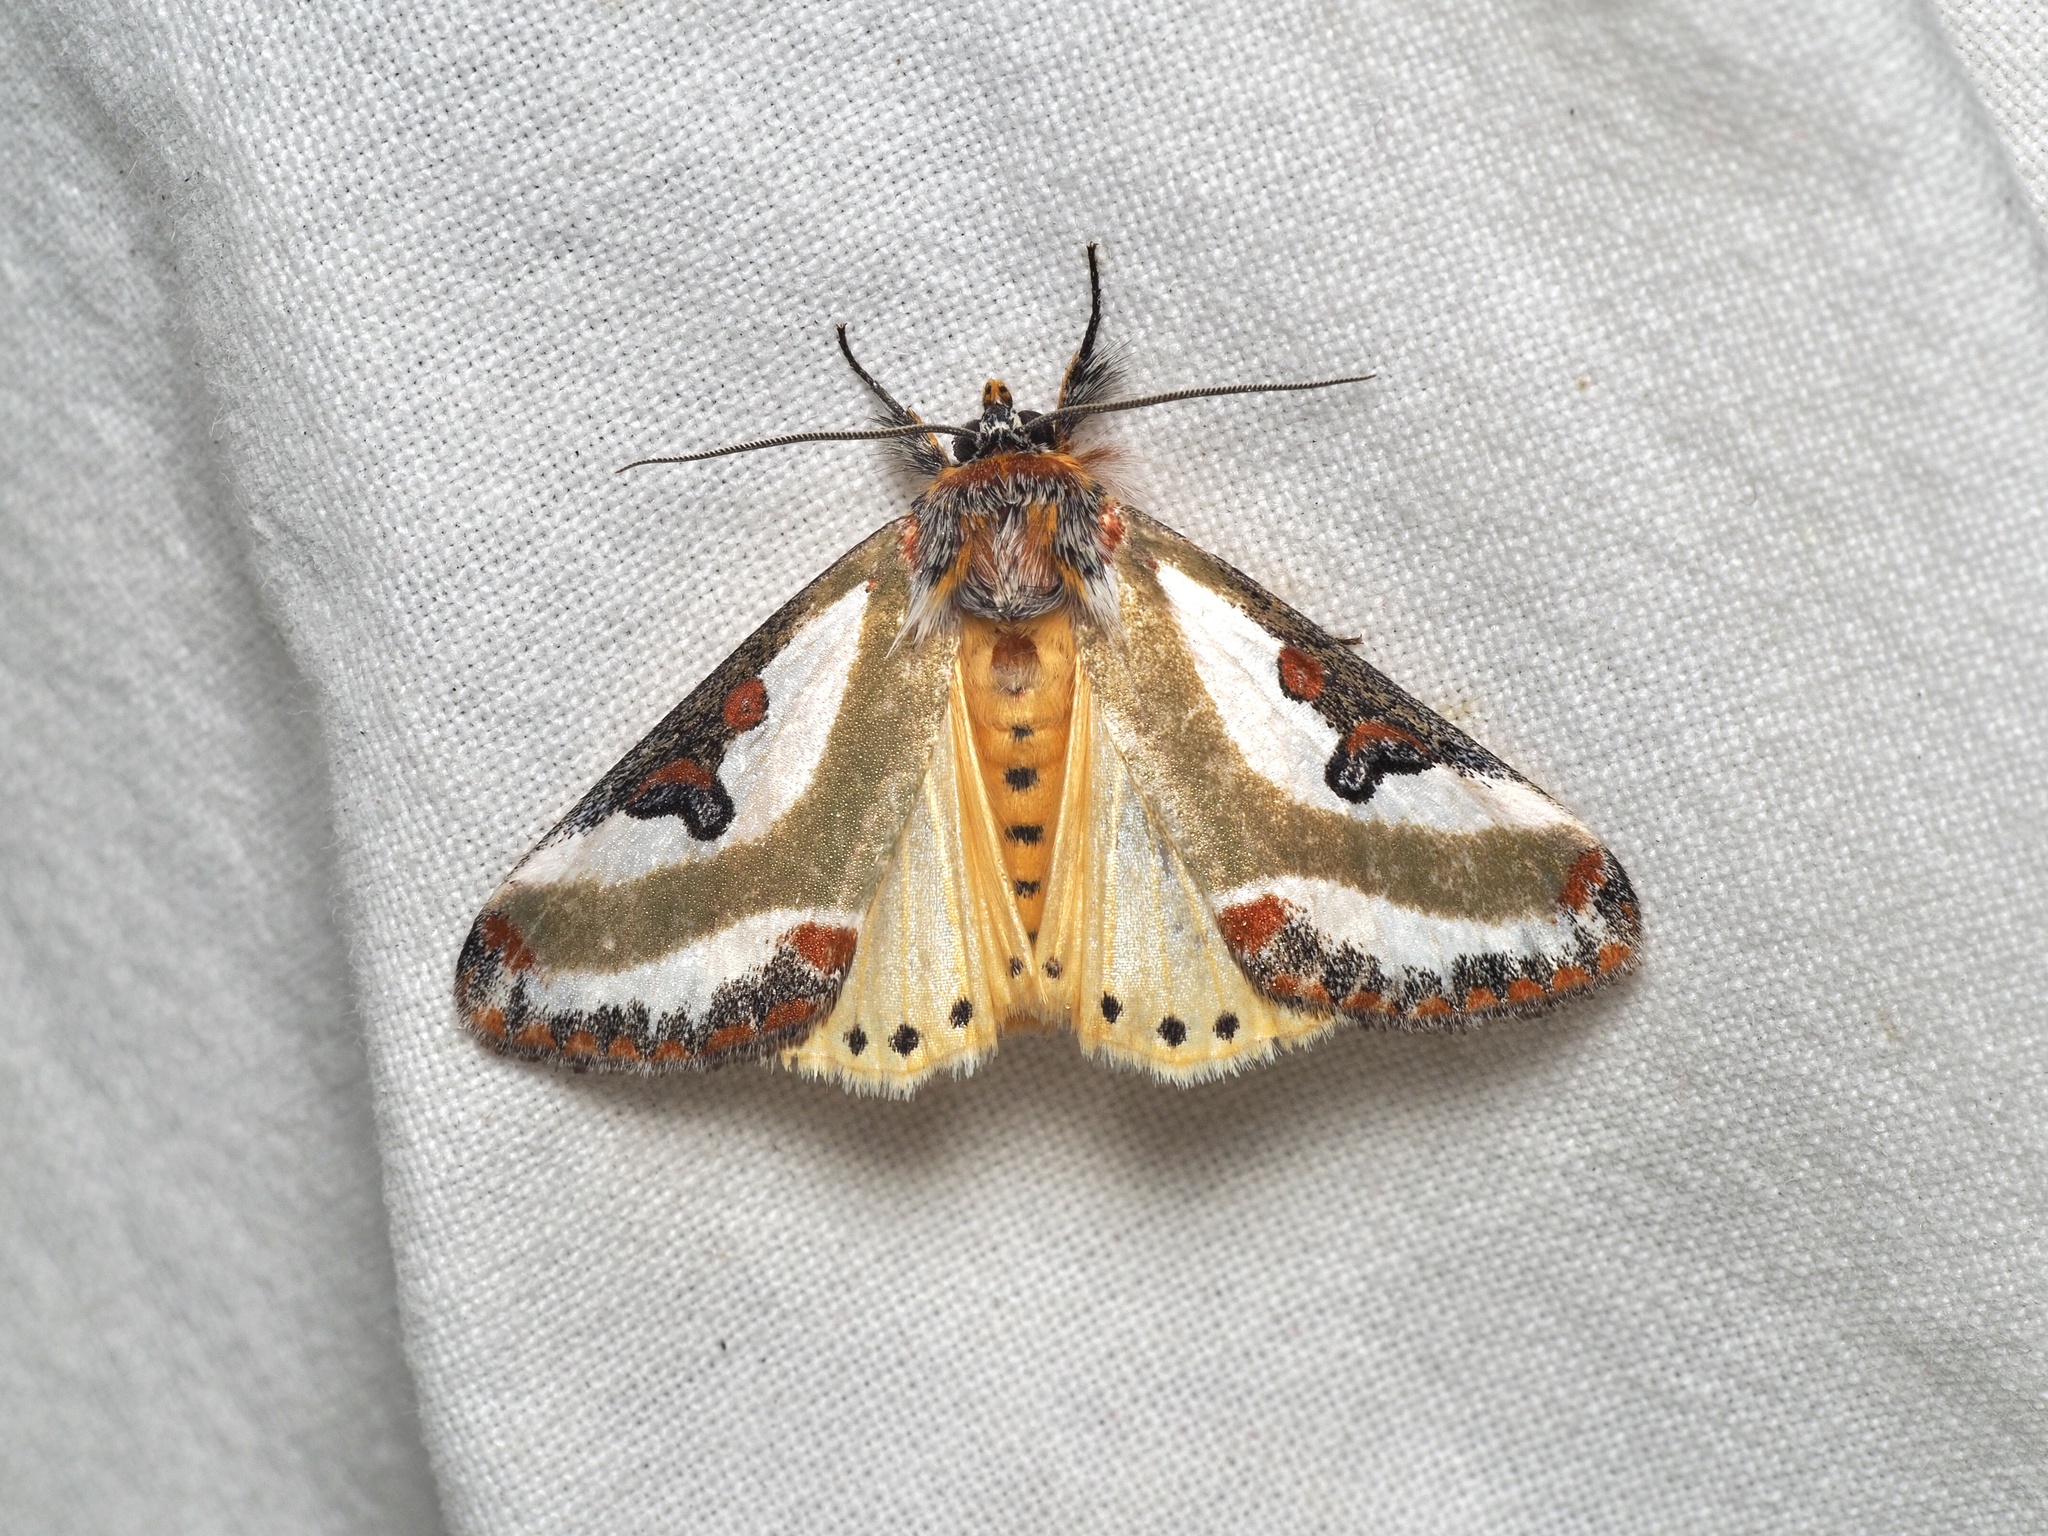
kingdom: Animalia
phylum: Arthropoda
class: Insecta
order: Lepidoptera
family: Noctuidae
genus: Ovios
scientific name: Ovios capensis
